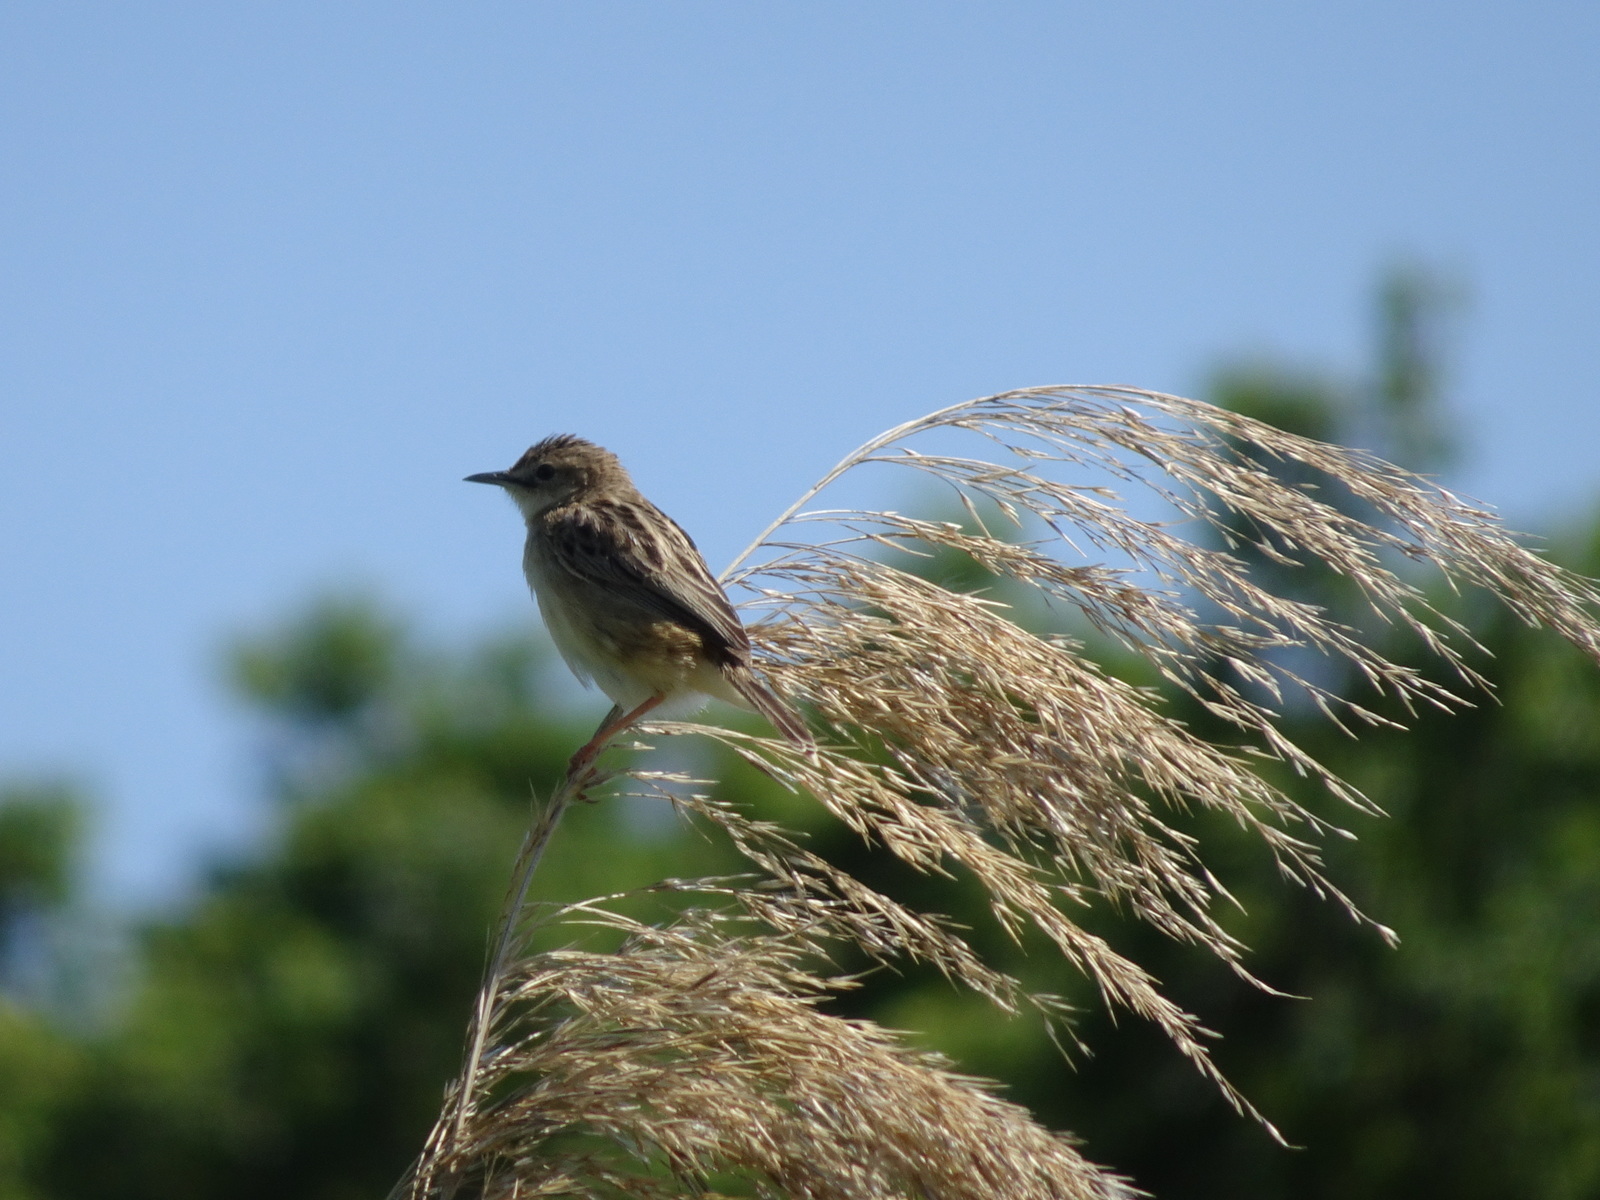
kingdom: Animalia
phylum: Chordata
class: Aves
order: Passeriformes
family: Cisticolidae
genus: Cisticola
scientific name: Cisticola juncidis
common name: Zitting cisticola
